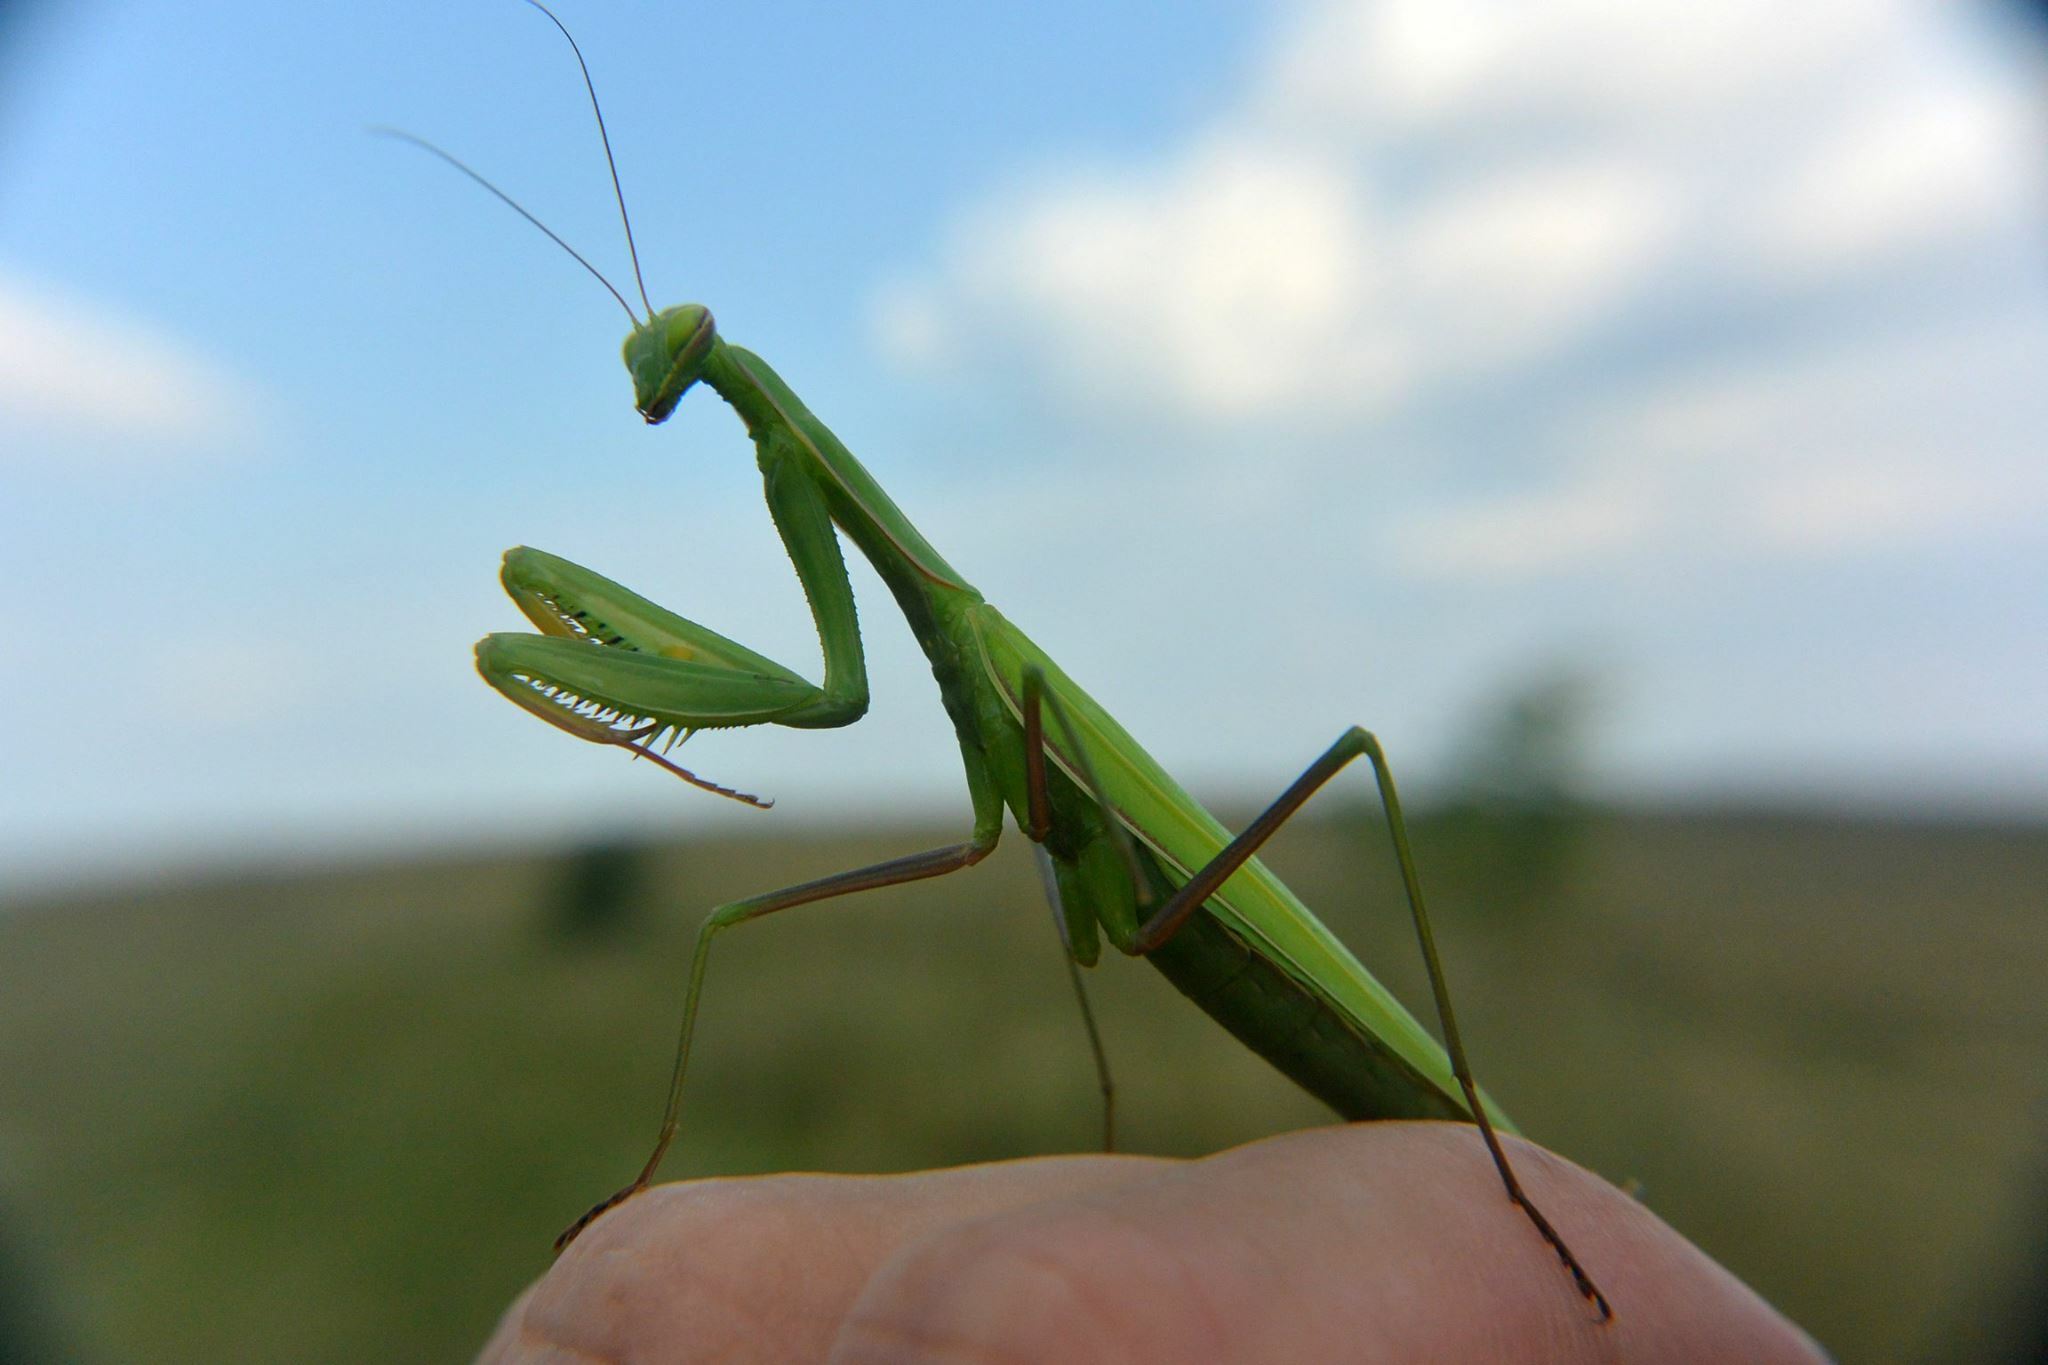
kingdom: Animalia
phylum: Arthropoda
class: Insecta
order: Mantodea
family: Mantidae
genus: Mantis
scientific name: Mantis religiosa
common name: Praying mantis
